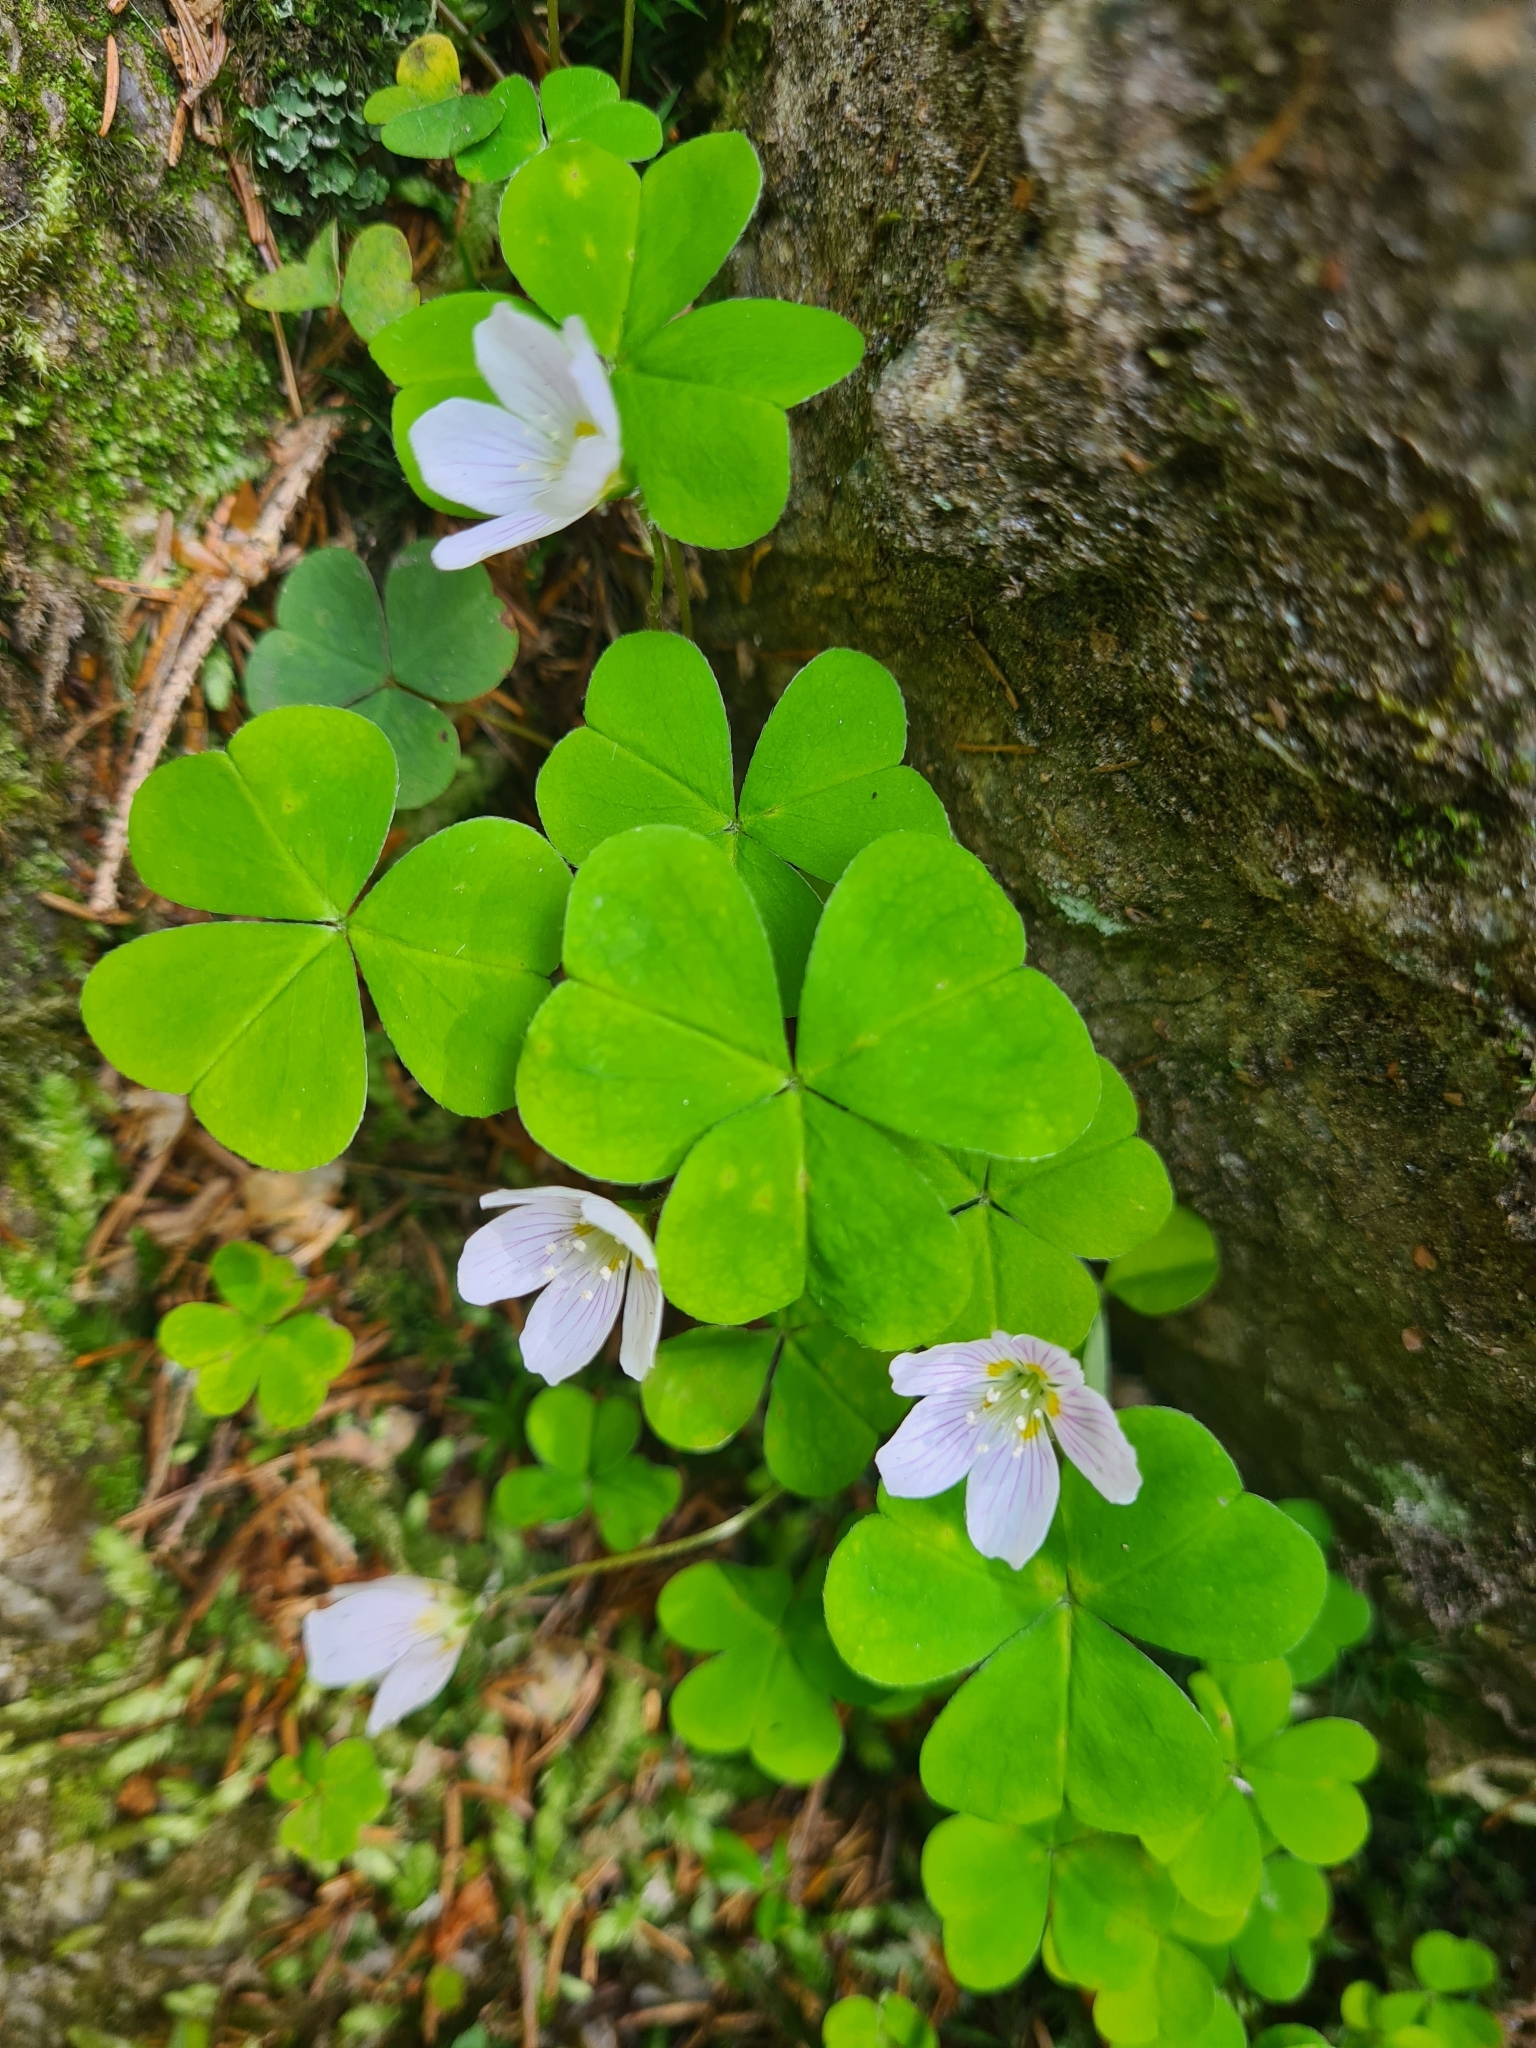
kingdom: Plantae
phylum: Tracheophyta
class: Magnoliopsida
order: Oxalidales
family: Oxalidaceae
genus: Oxalis
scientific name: Oxalis acetosella
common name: Wood-sorrel
